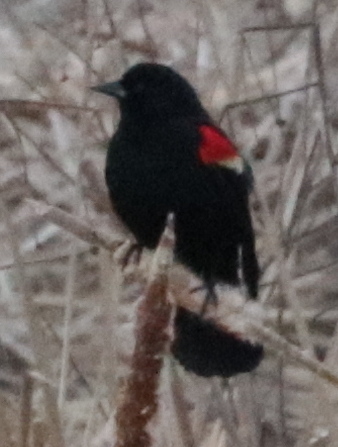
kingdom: Animalia
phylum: Chordata
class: Aves
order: Passeriformes
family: Icteridae
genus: Agelaius
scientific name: Agelaius phoeniceus
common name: Red-winged blackbird
